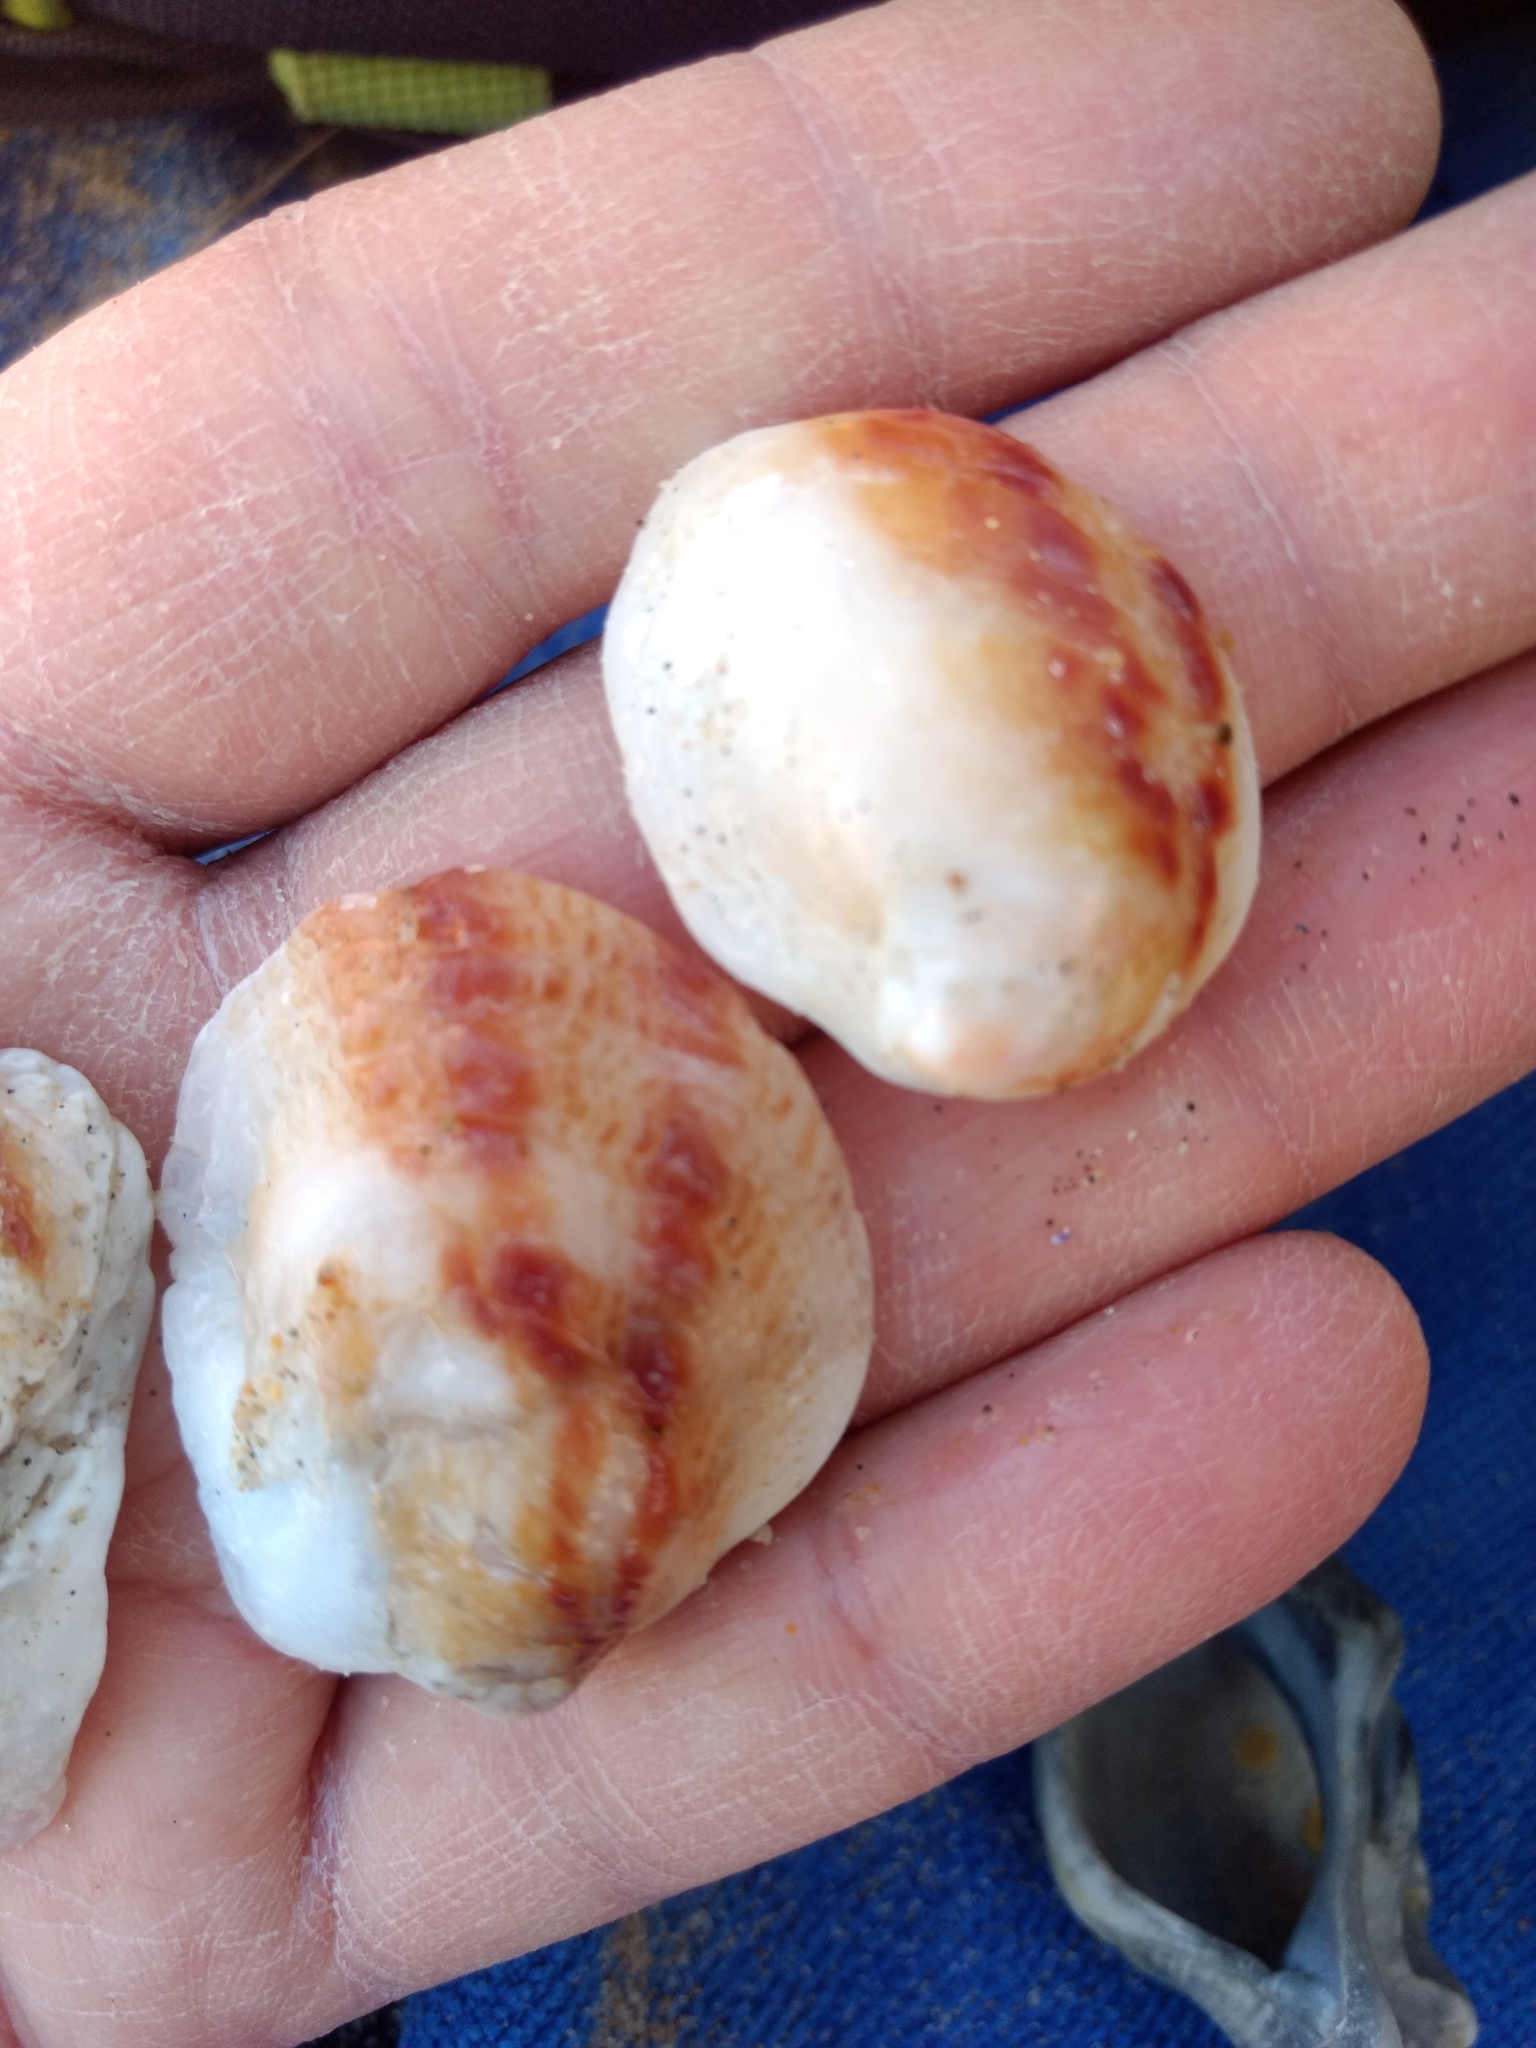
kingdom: Animalia
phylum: Mollusca
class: Bivalvia
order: Venerida
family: Chamidae
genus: Chama
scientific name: Chama arcana
